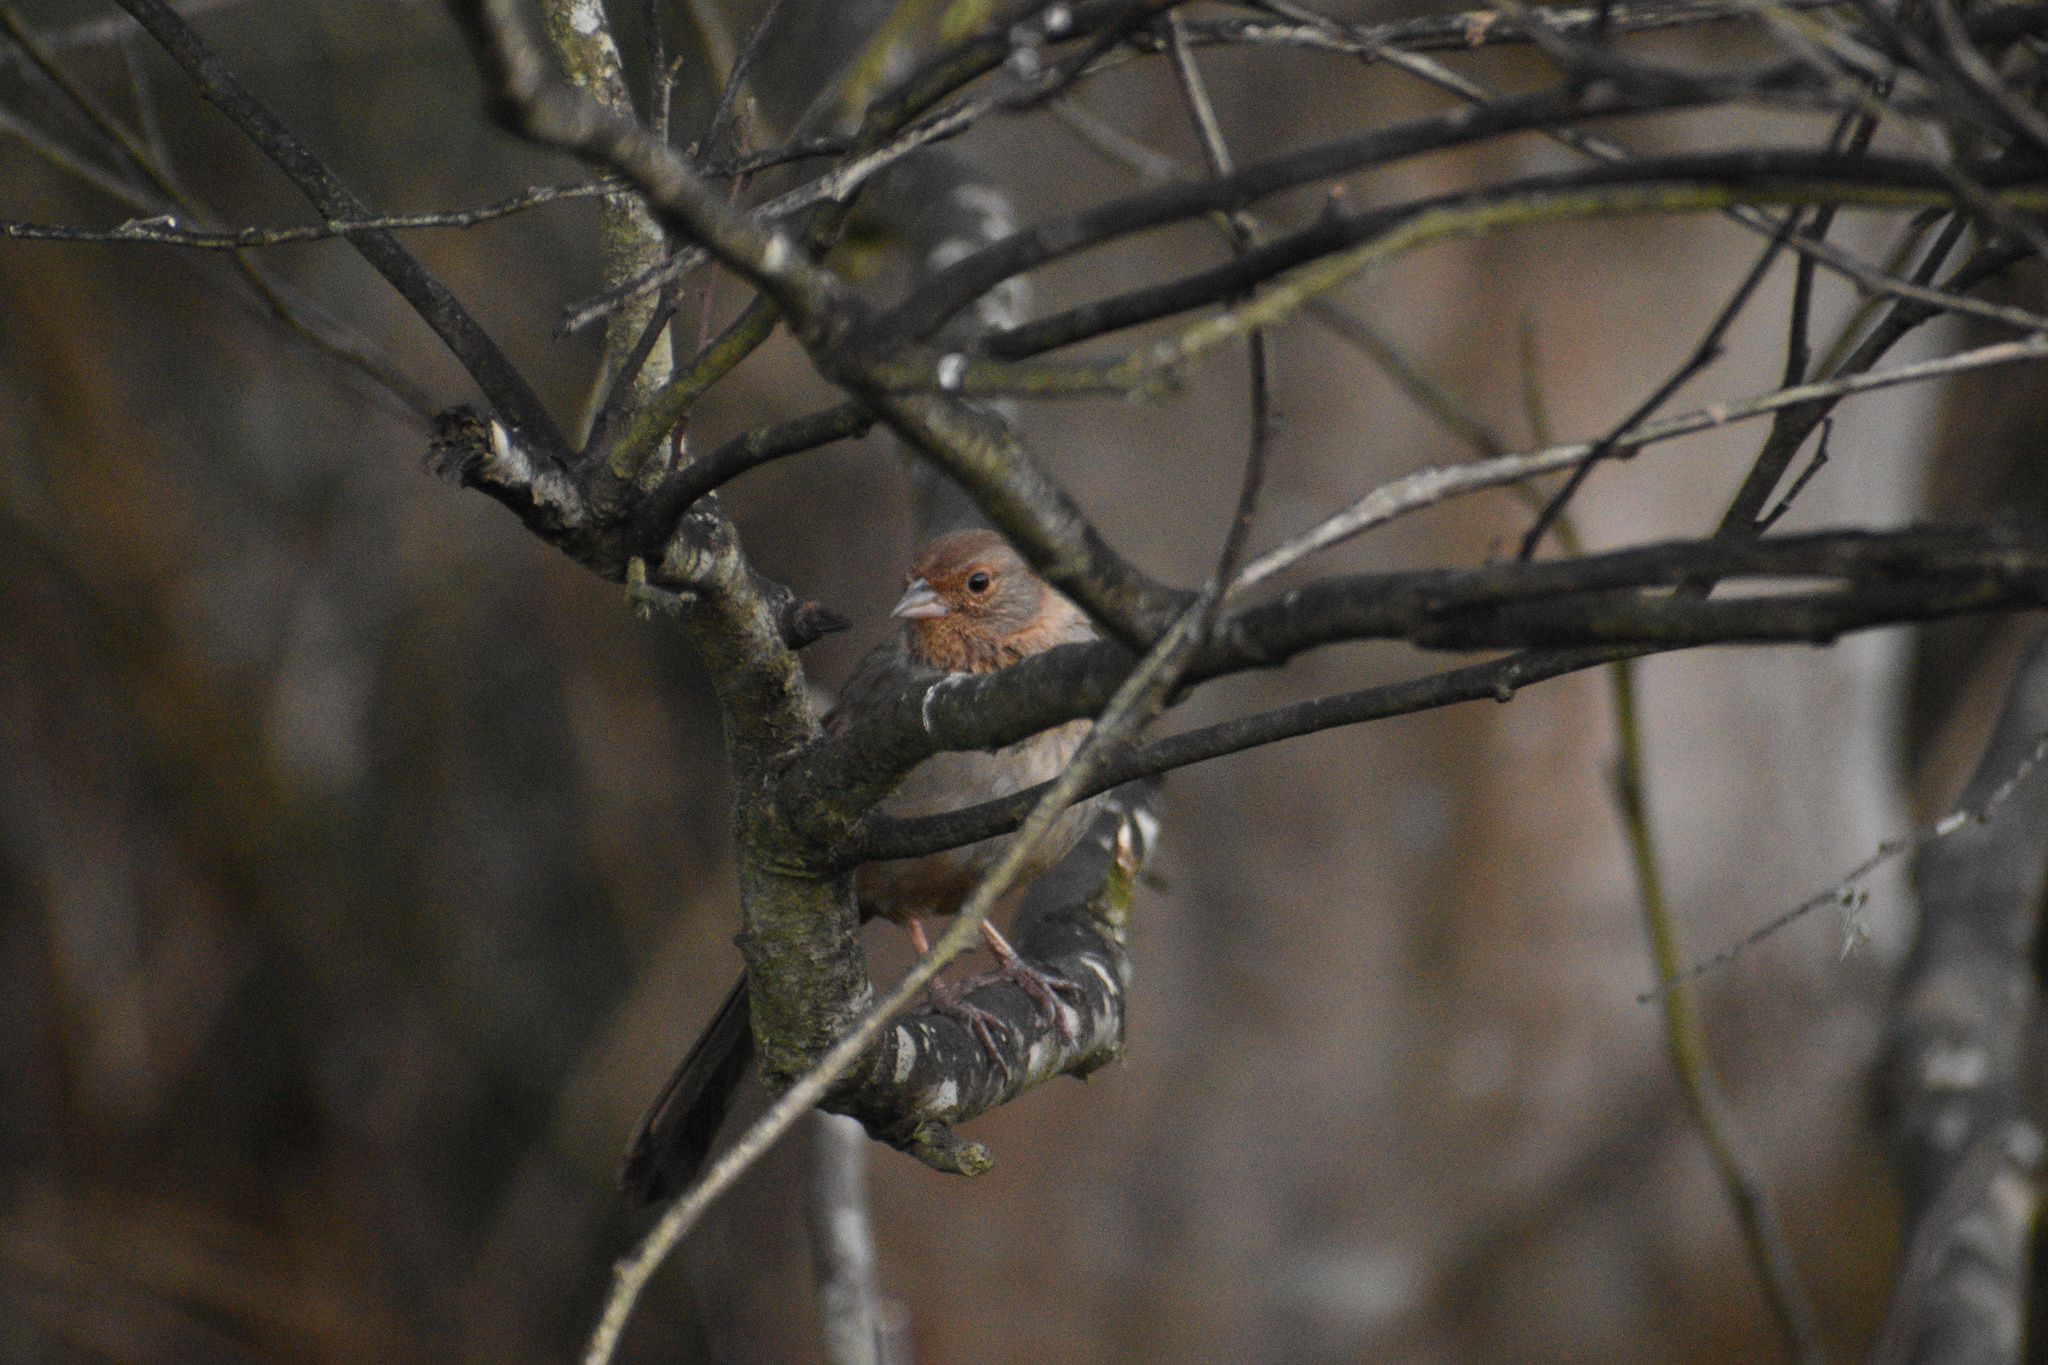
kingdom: Animalia
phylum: Chordata
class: Aves
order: Passeriformes
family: Passerellidae
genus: Melozone
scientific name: Melozone crissalis
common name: California towhee
